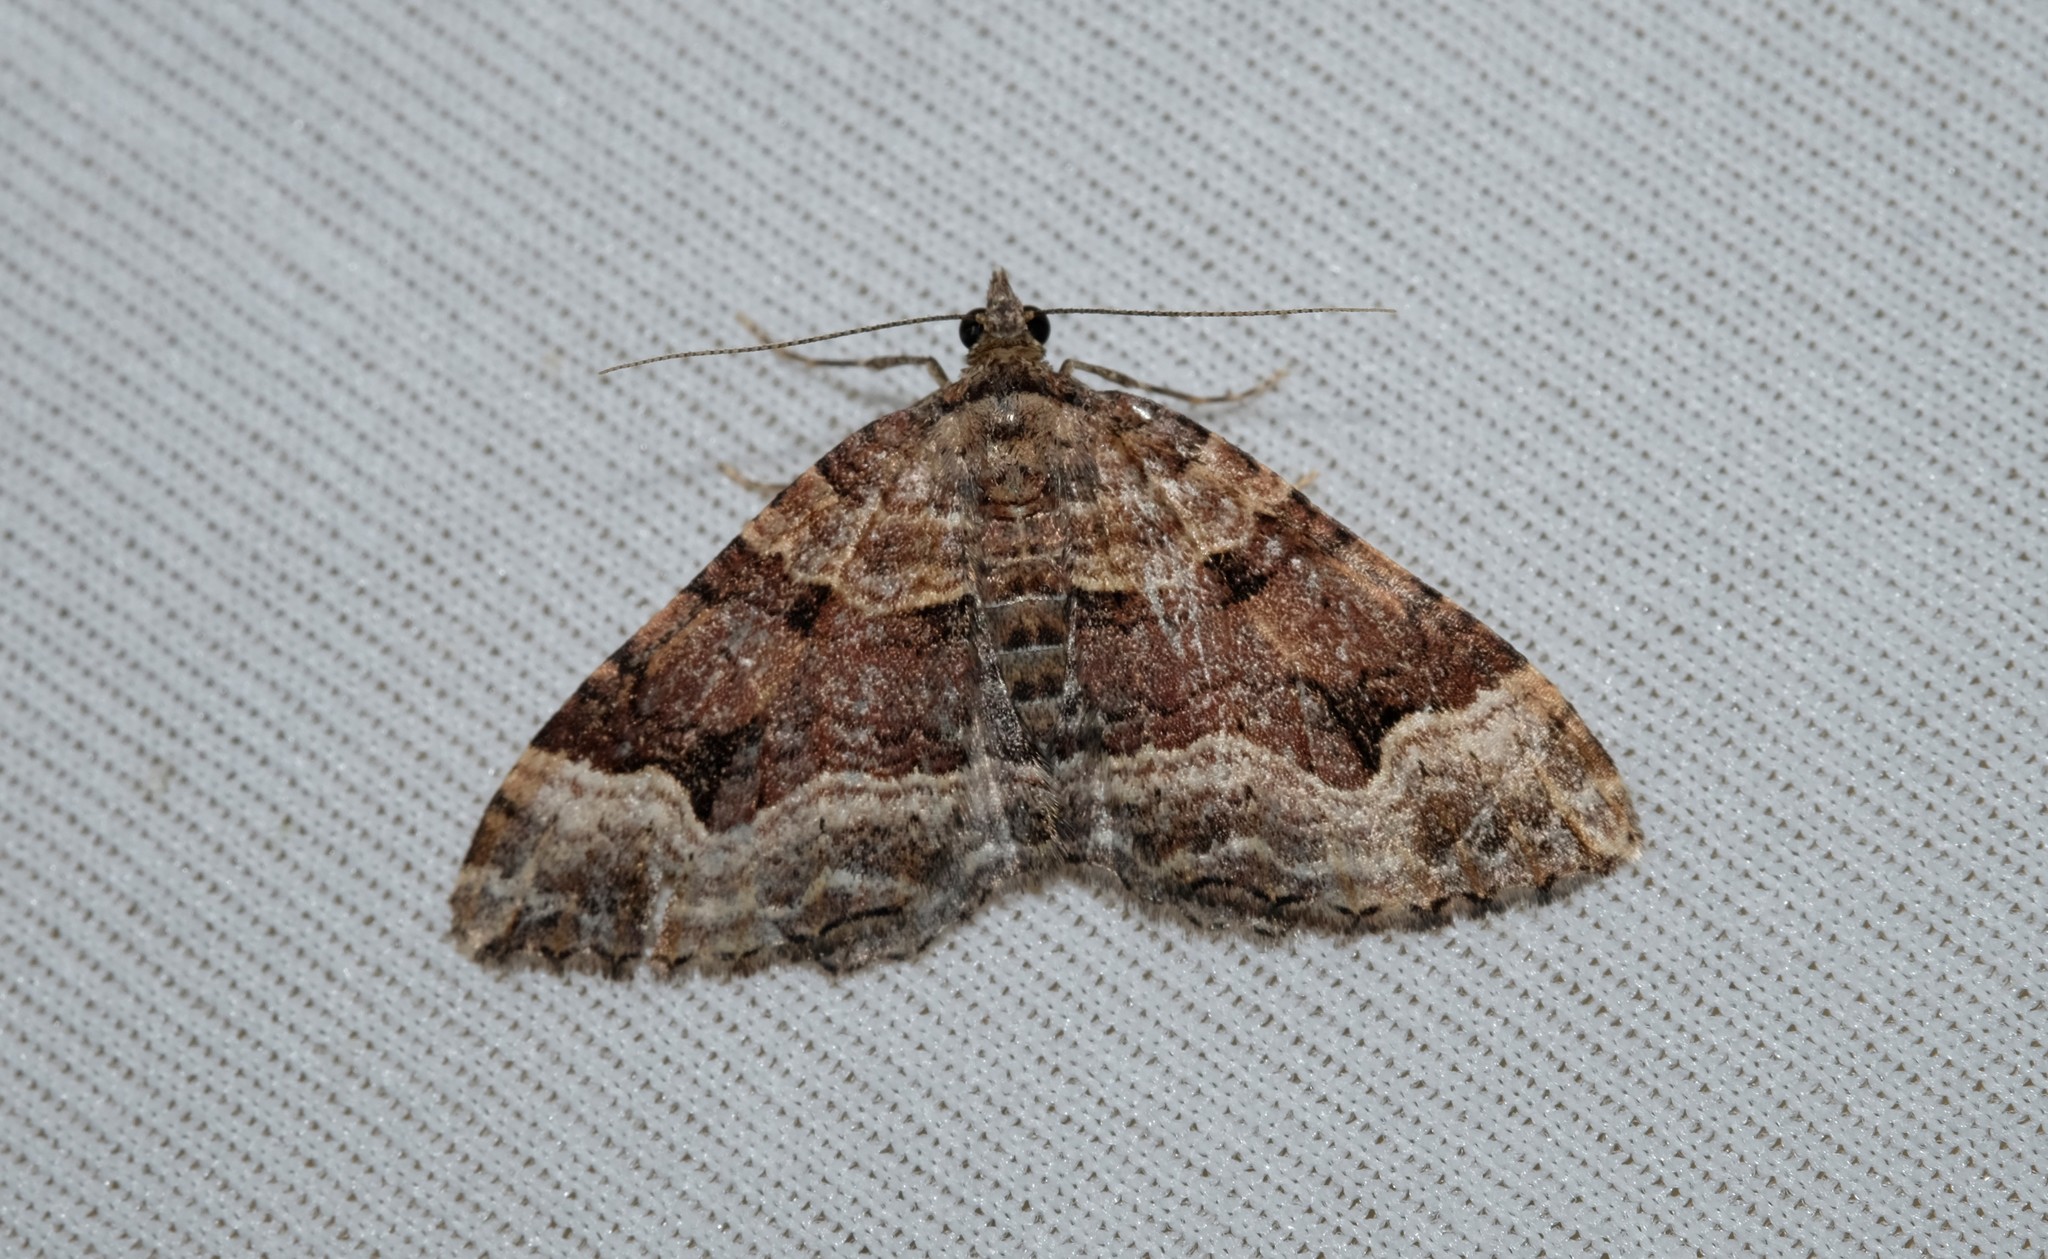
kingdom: Animalia
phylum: Arthropoda
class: Insecta
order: Lepidoptera
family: Geometridae
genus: Epyaxa
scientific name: Epyaxa subidaria
